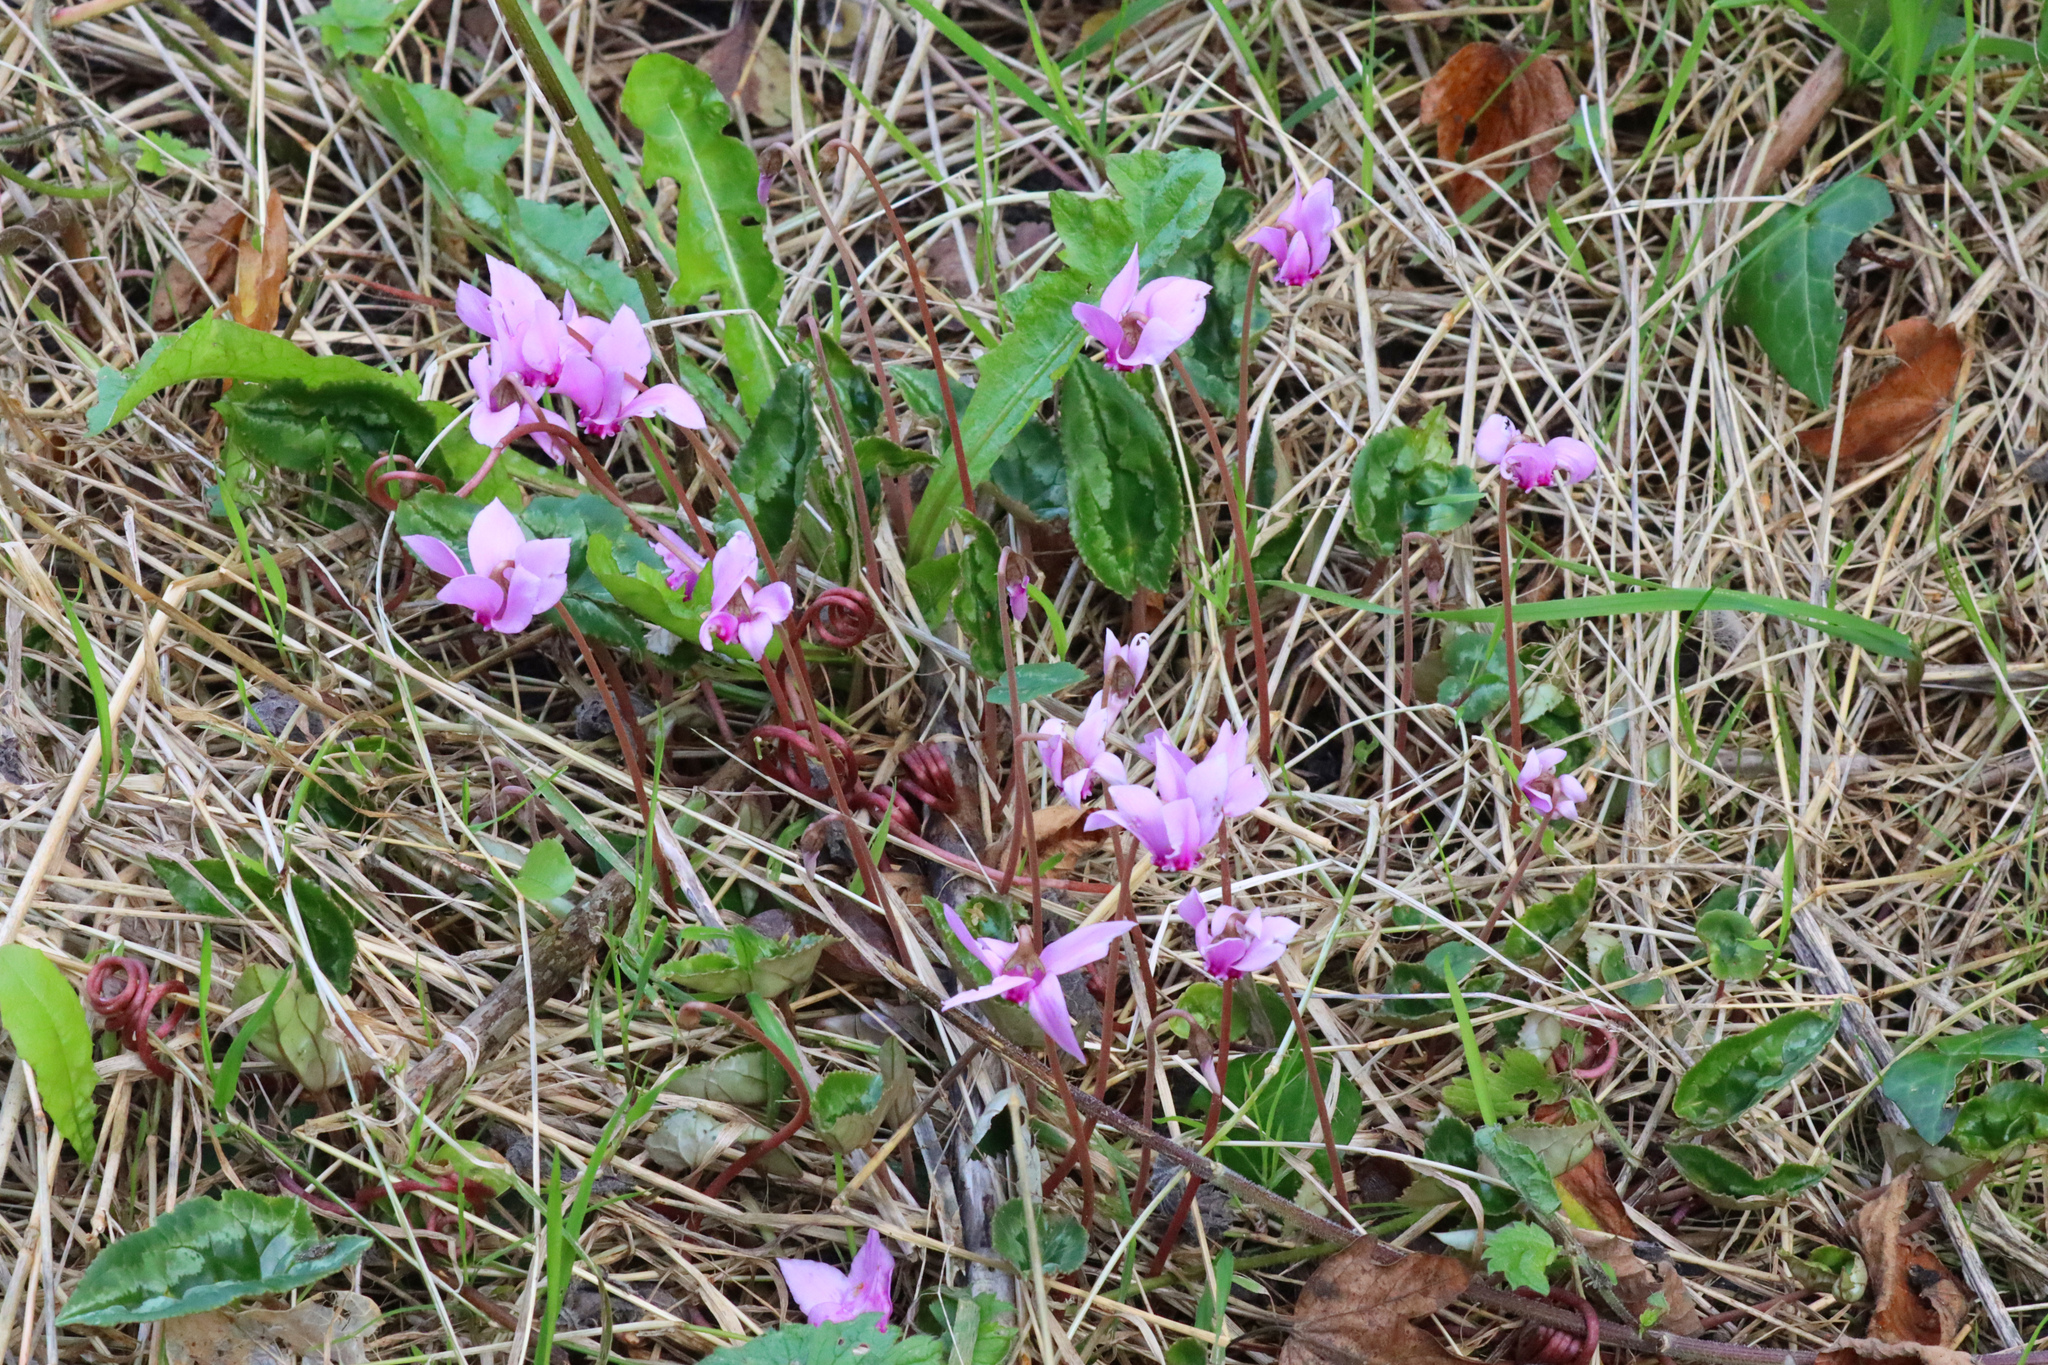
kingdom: Plantae
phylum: Tracheophyta
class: Magnoliopsida
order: Ericales
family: Primulaceae
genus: Cyclamen
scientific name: Cyclamen hederifolium
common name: Sowbread
